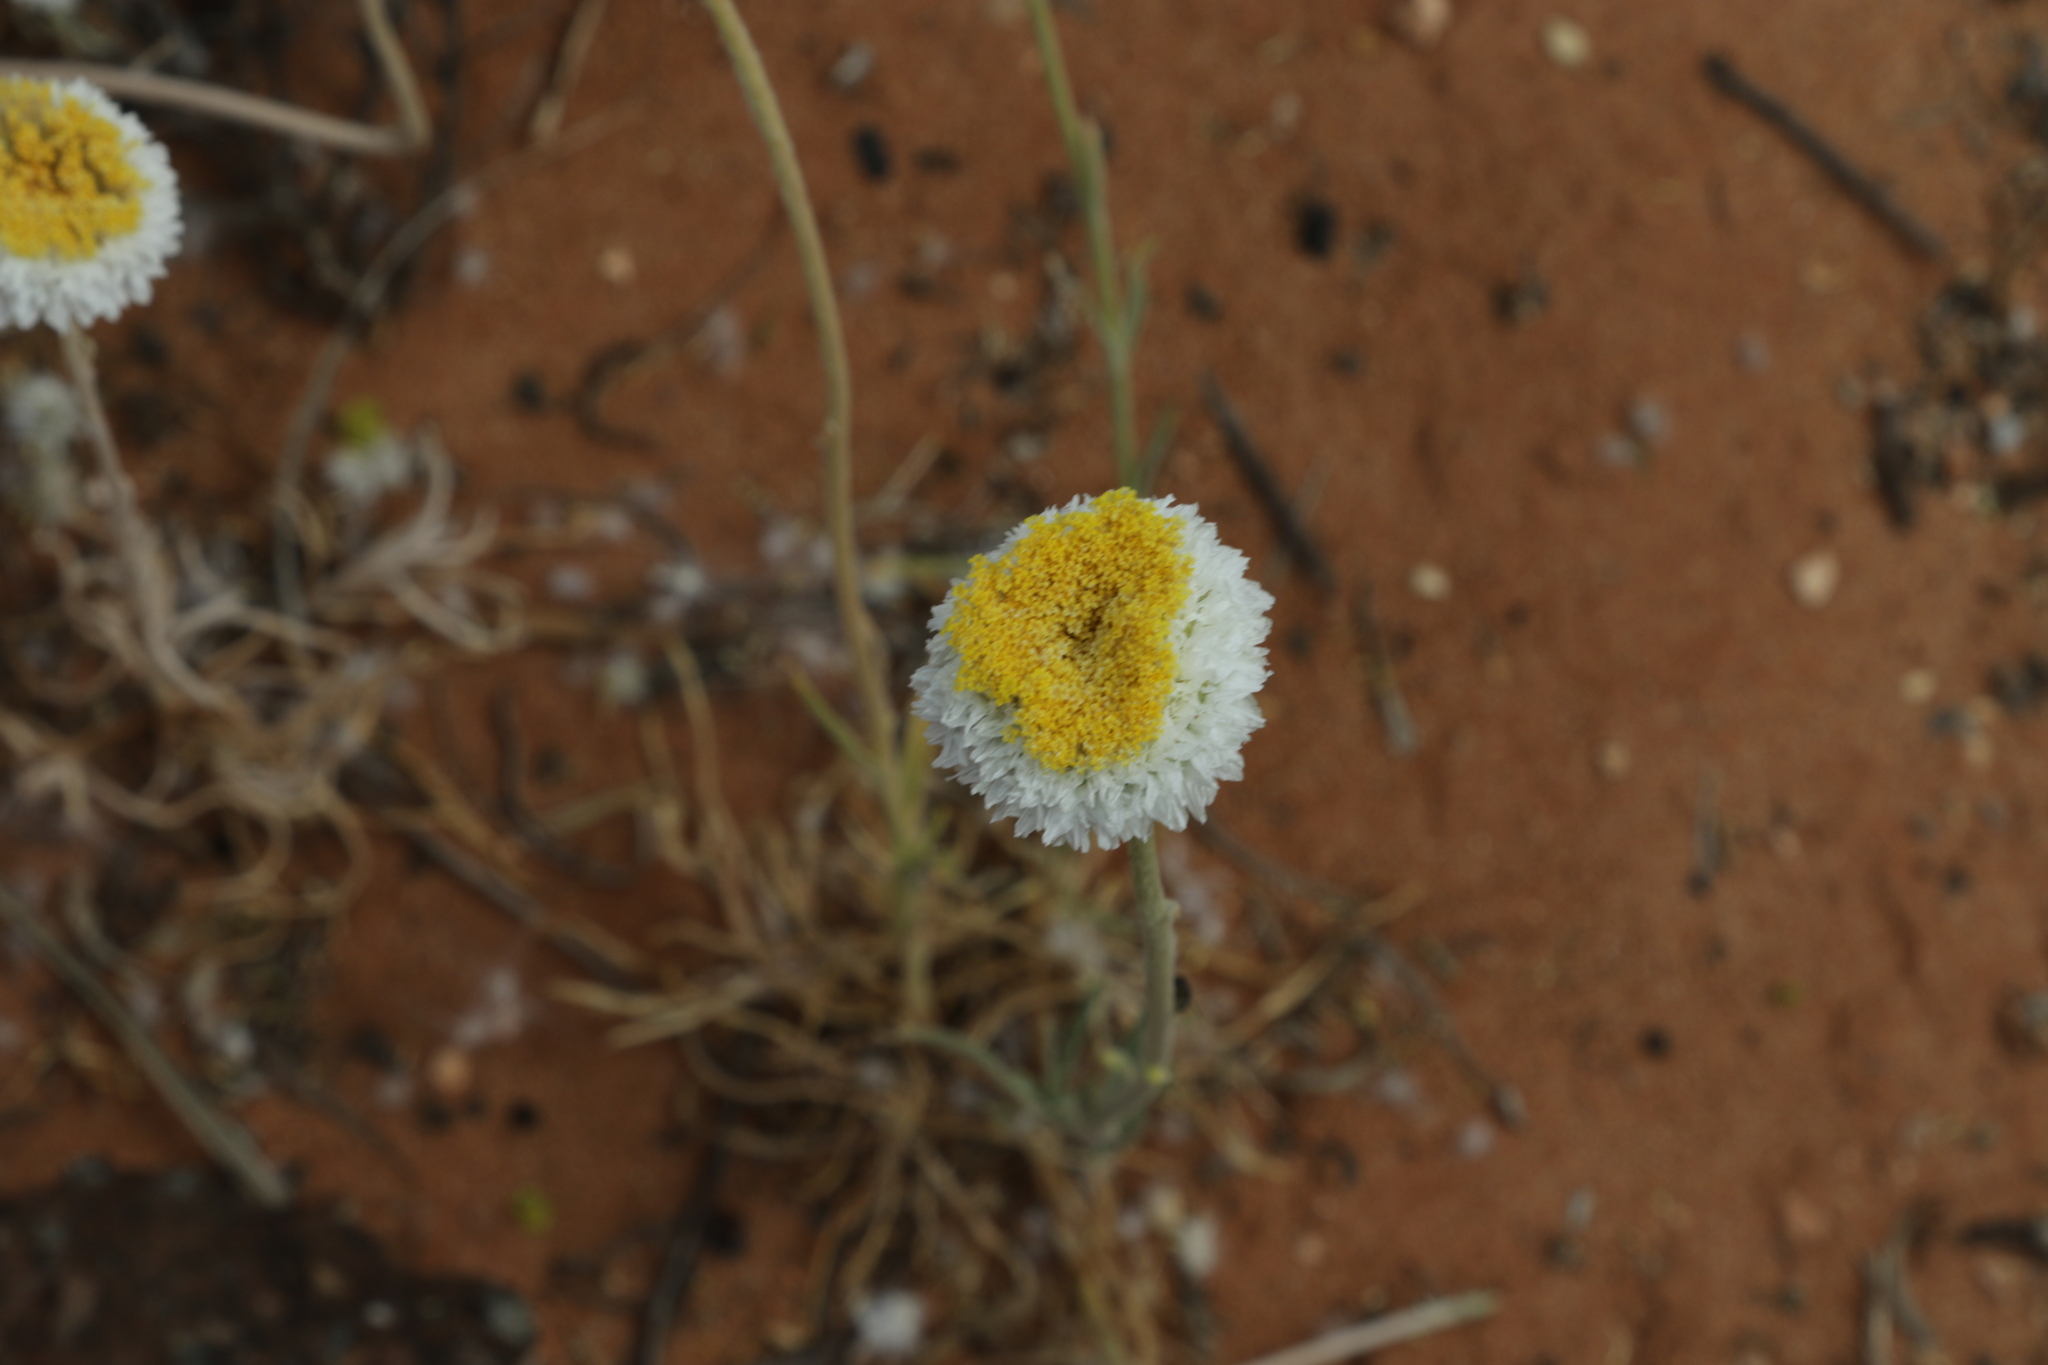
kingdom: Plantae
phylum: Tracheophyta
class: Magnoliopsida
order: Asterales
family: Asteraceae
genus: Polycalymma
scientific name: Polycalymma stuartii
